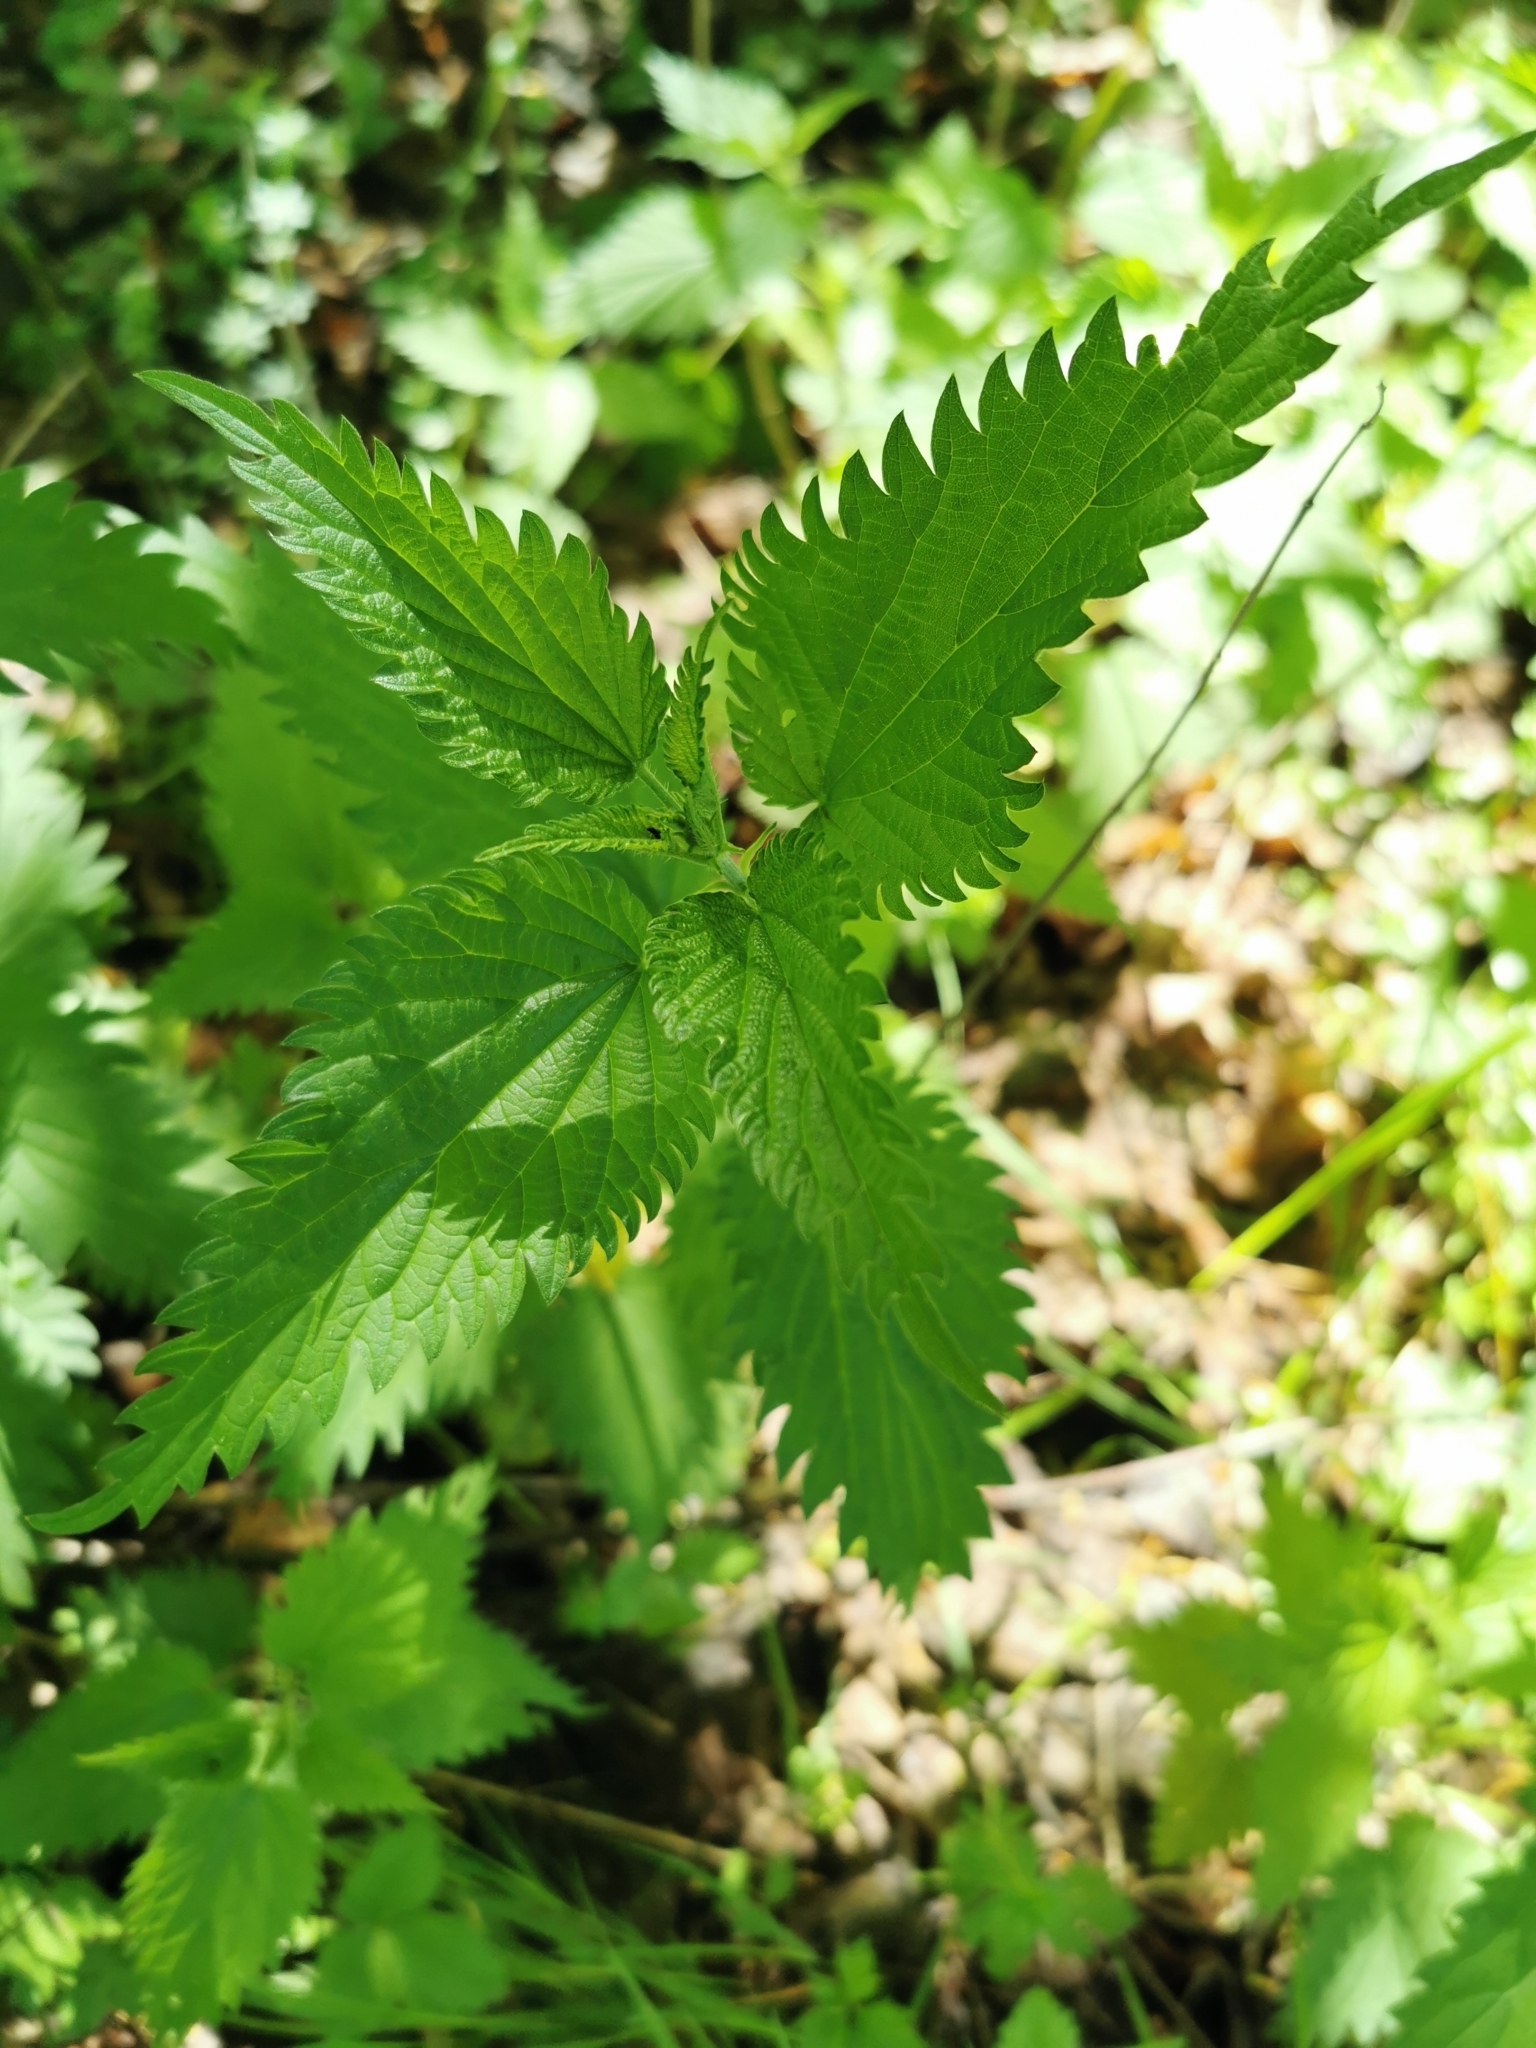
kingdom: Plantae
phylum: Tracheophyta
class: Magnoliopsida
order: Rosales
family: Urticaceae
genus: Urtica
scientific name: Urtica dioica
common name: Common nettle
